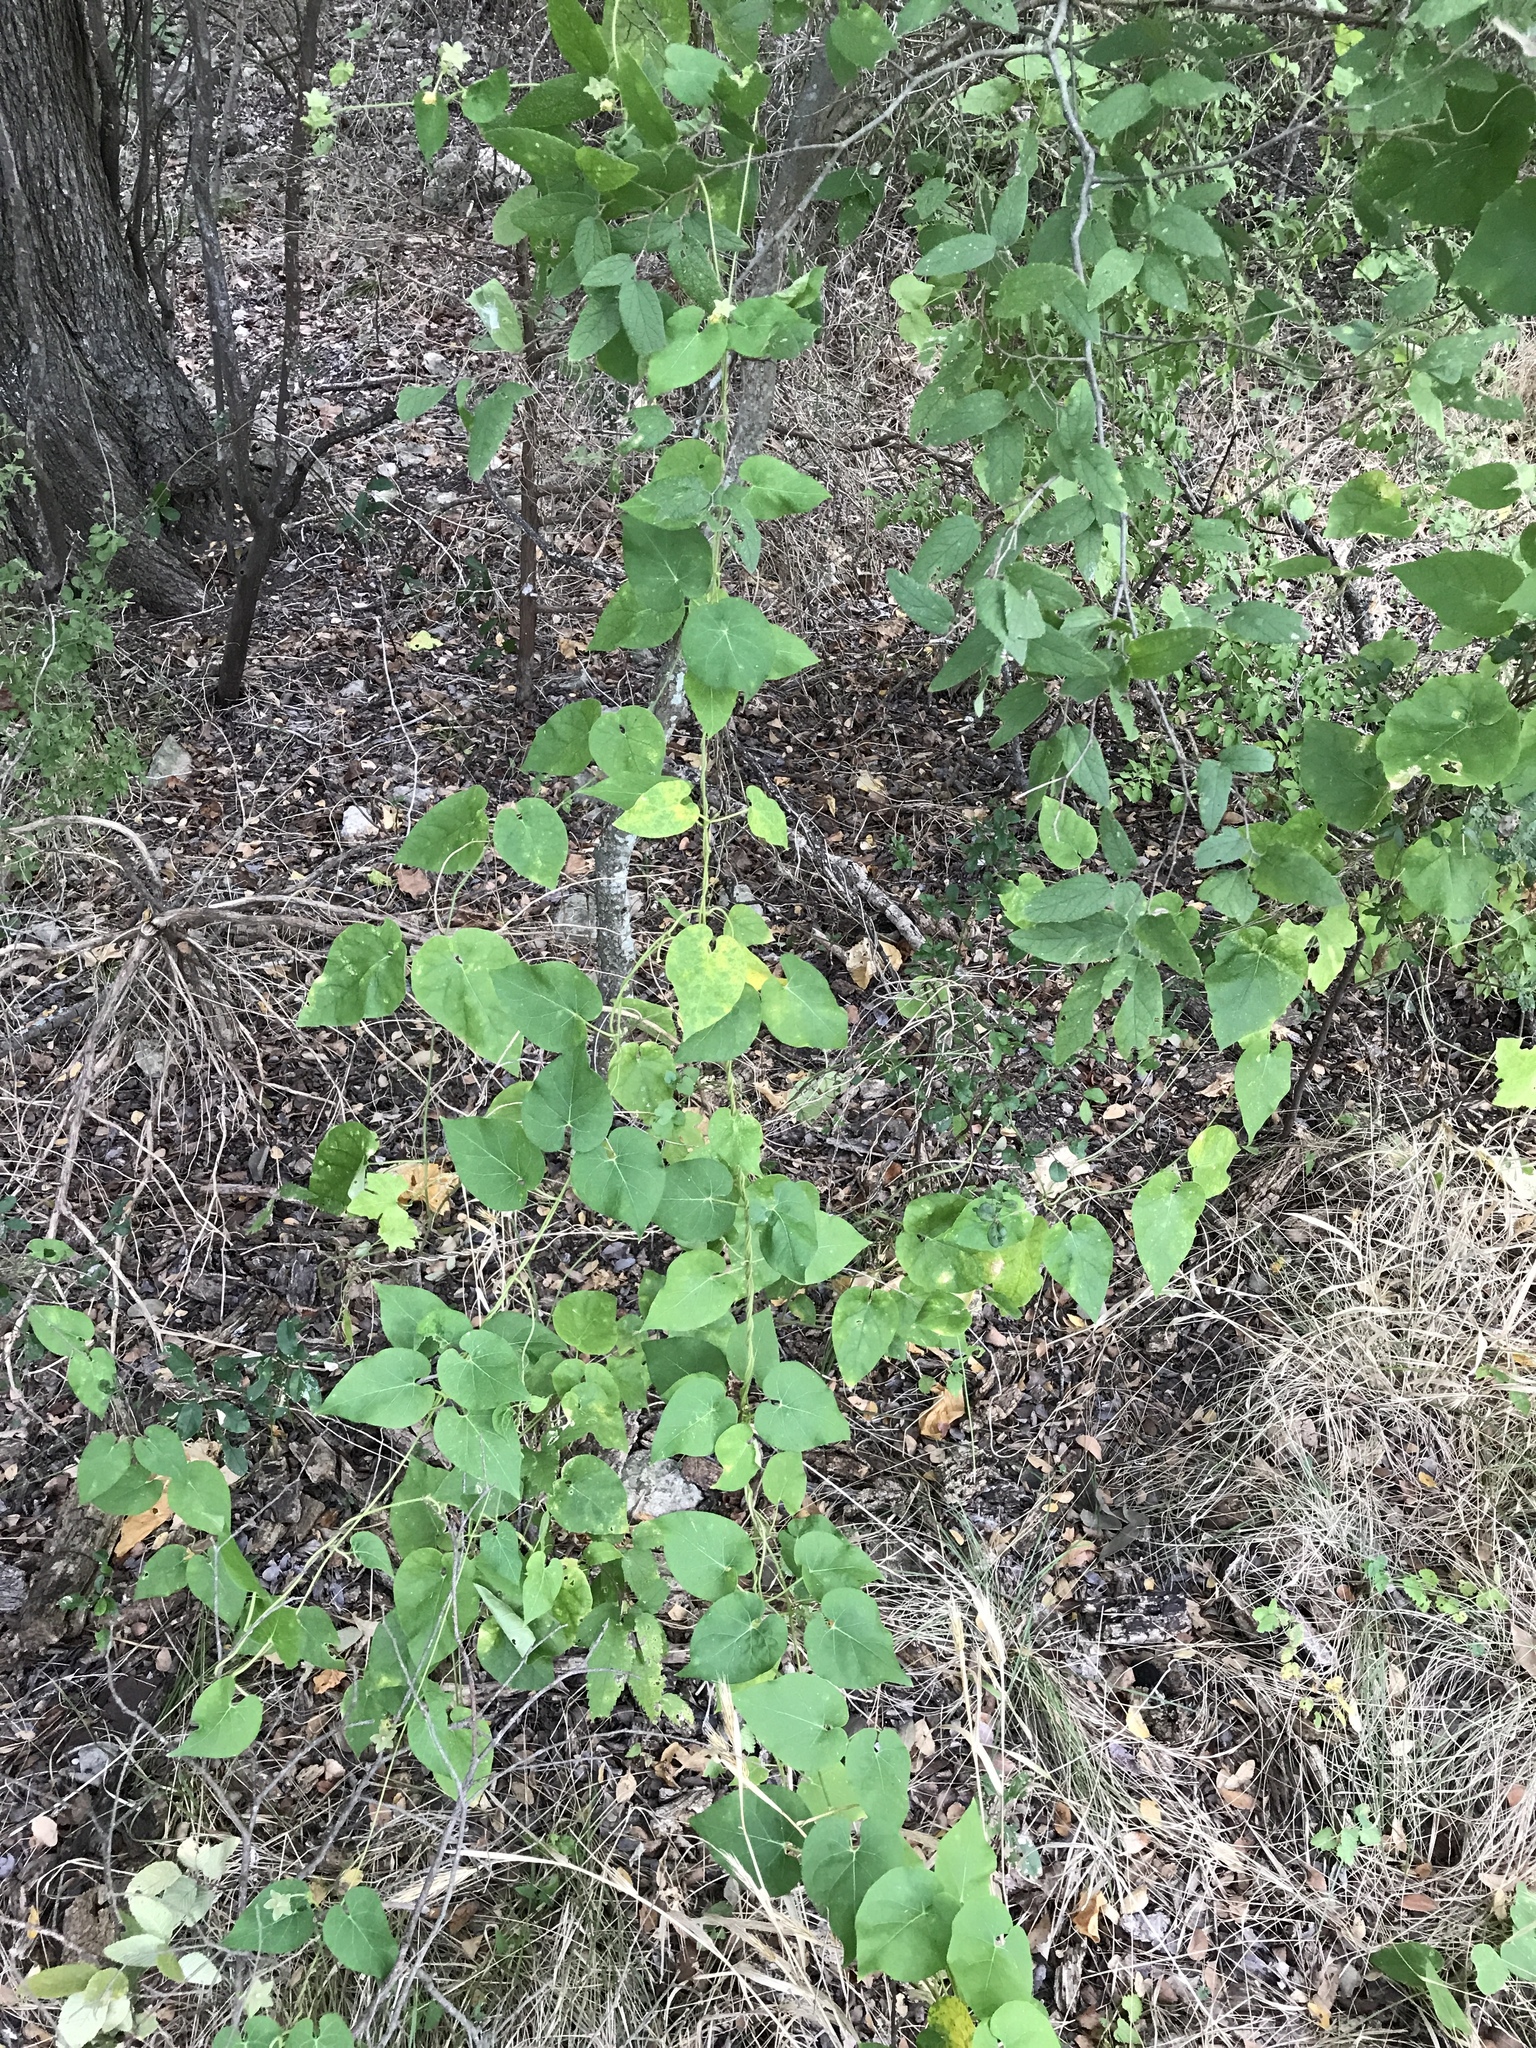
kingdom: Plantae
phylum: Tracheophyta
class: Magnoliopsida
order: Gentianales
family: Apocynaceae
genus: Dictyanthus
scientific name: Dictyanthus reticulatus
